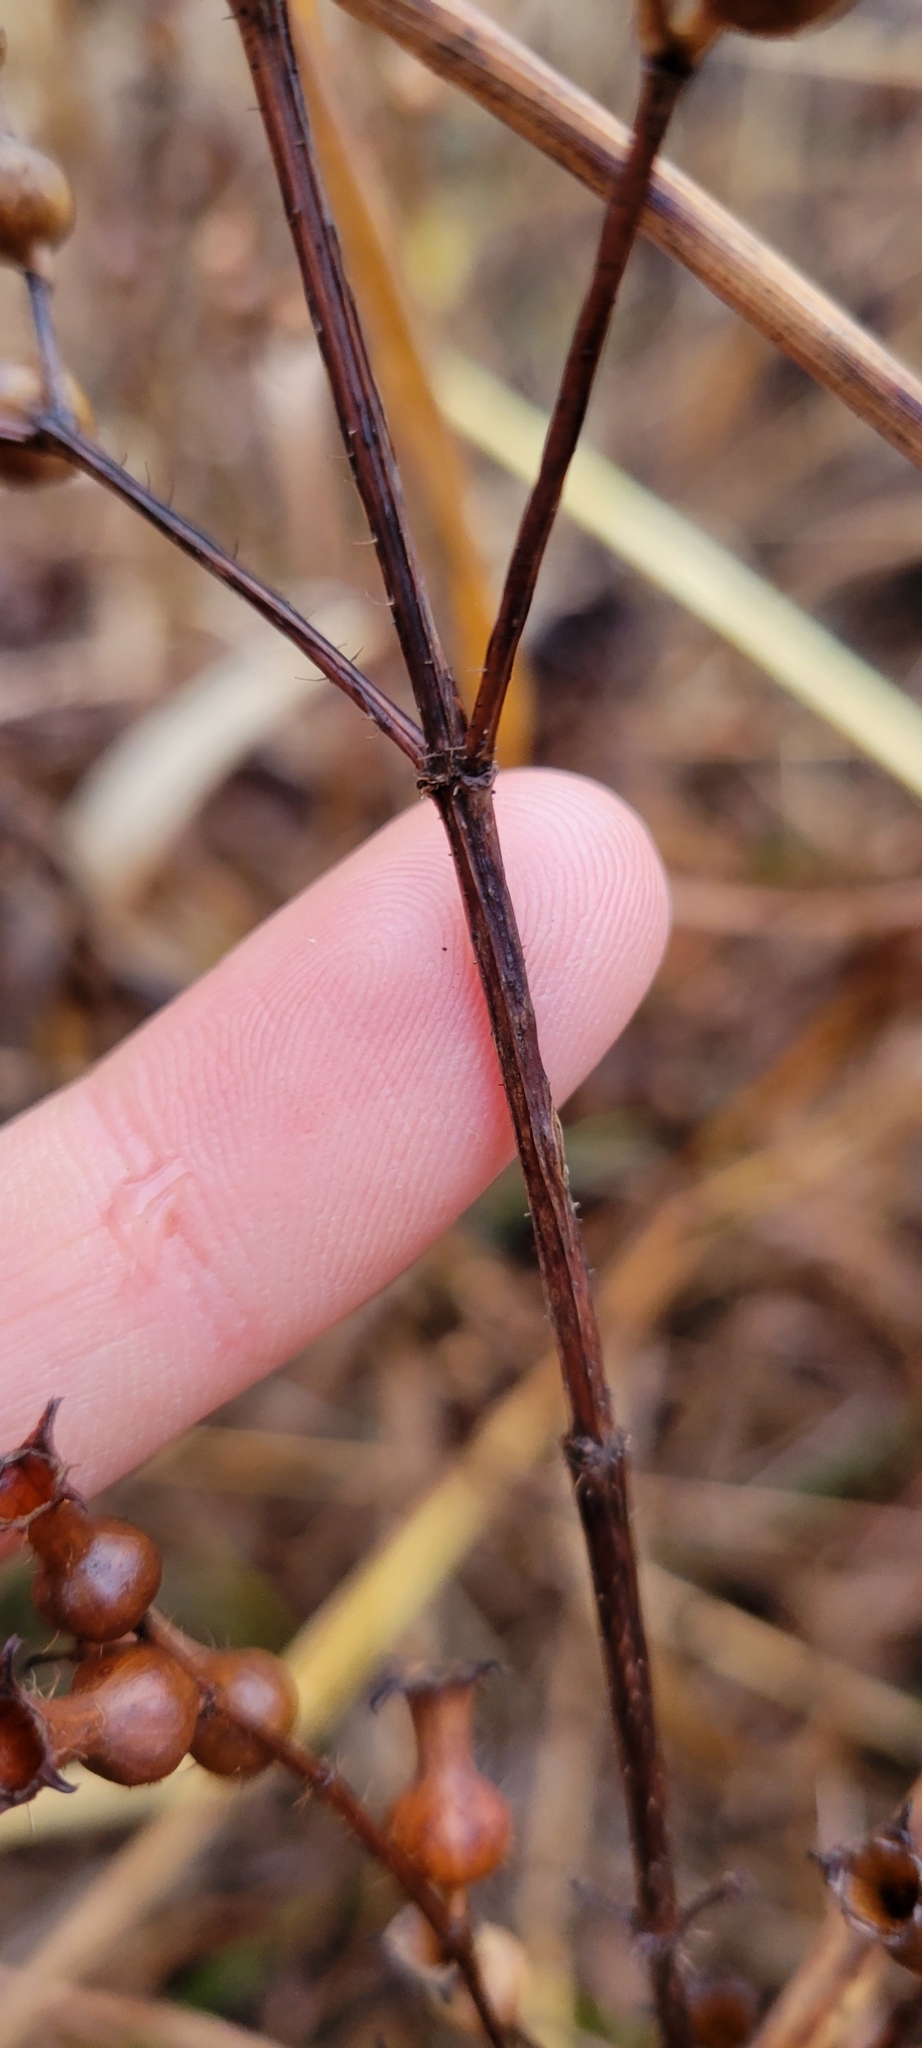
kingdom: Plantae
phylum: Tracheophyta
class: Magnoliopsida
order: Myrtales
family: Melastomataceae
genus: Rhexia
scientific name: Rhexia virginica
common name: Common meadow beauty
